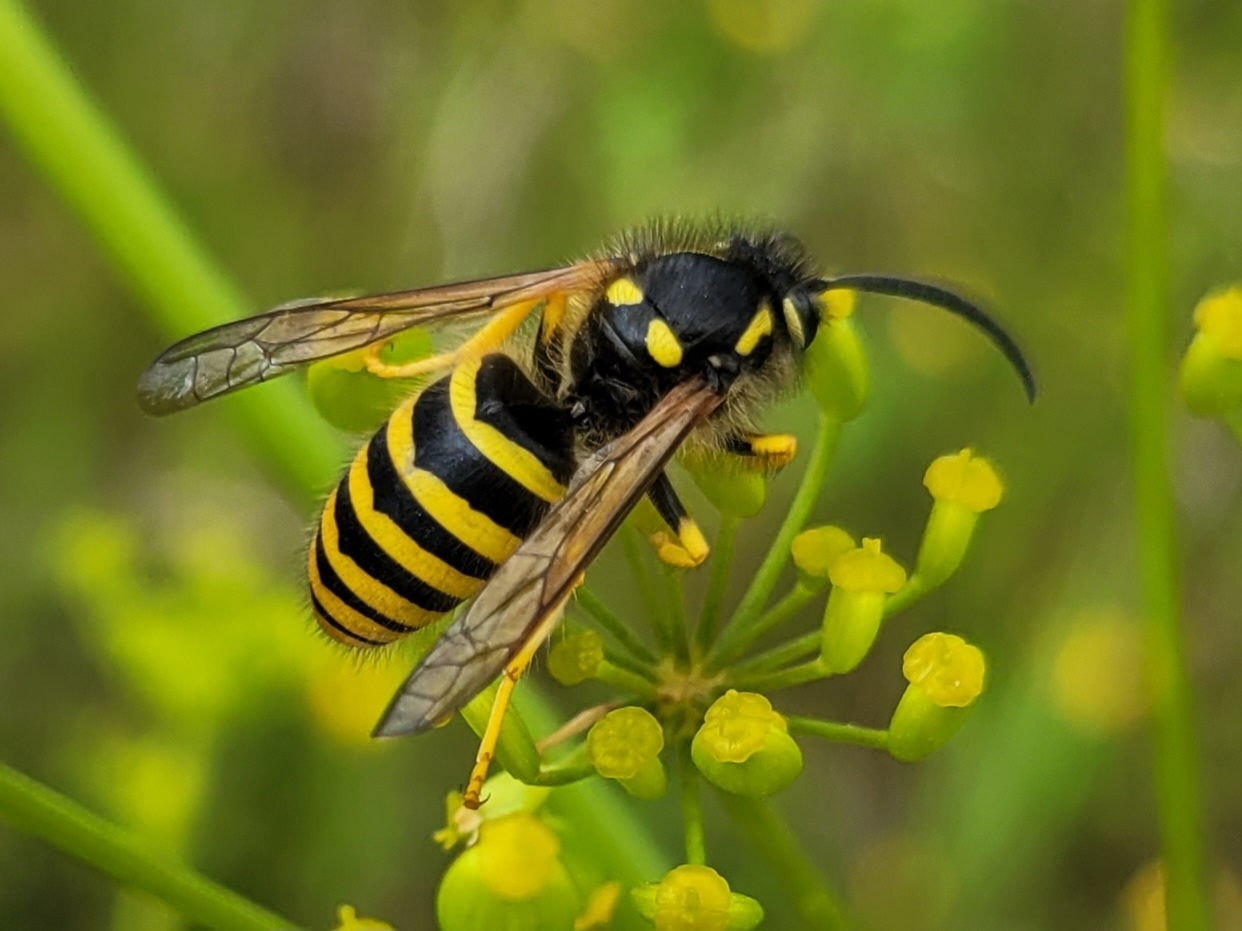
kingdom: Animalia
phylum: Arthropoda
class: Insecta
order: Hymenoptera
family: Vespidae
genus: Dolichovespula
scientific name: Dolichovespula sylvestris
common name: Tree wasp
